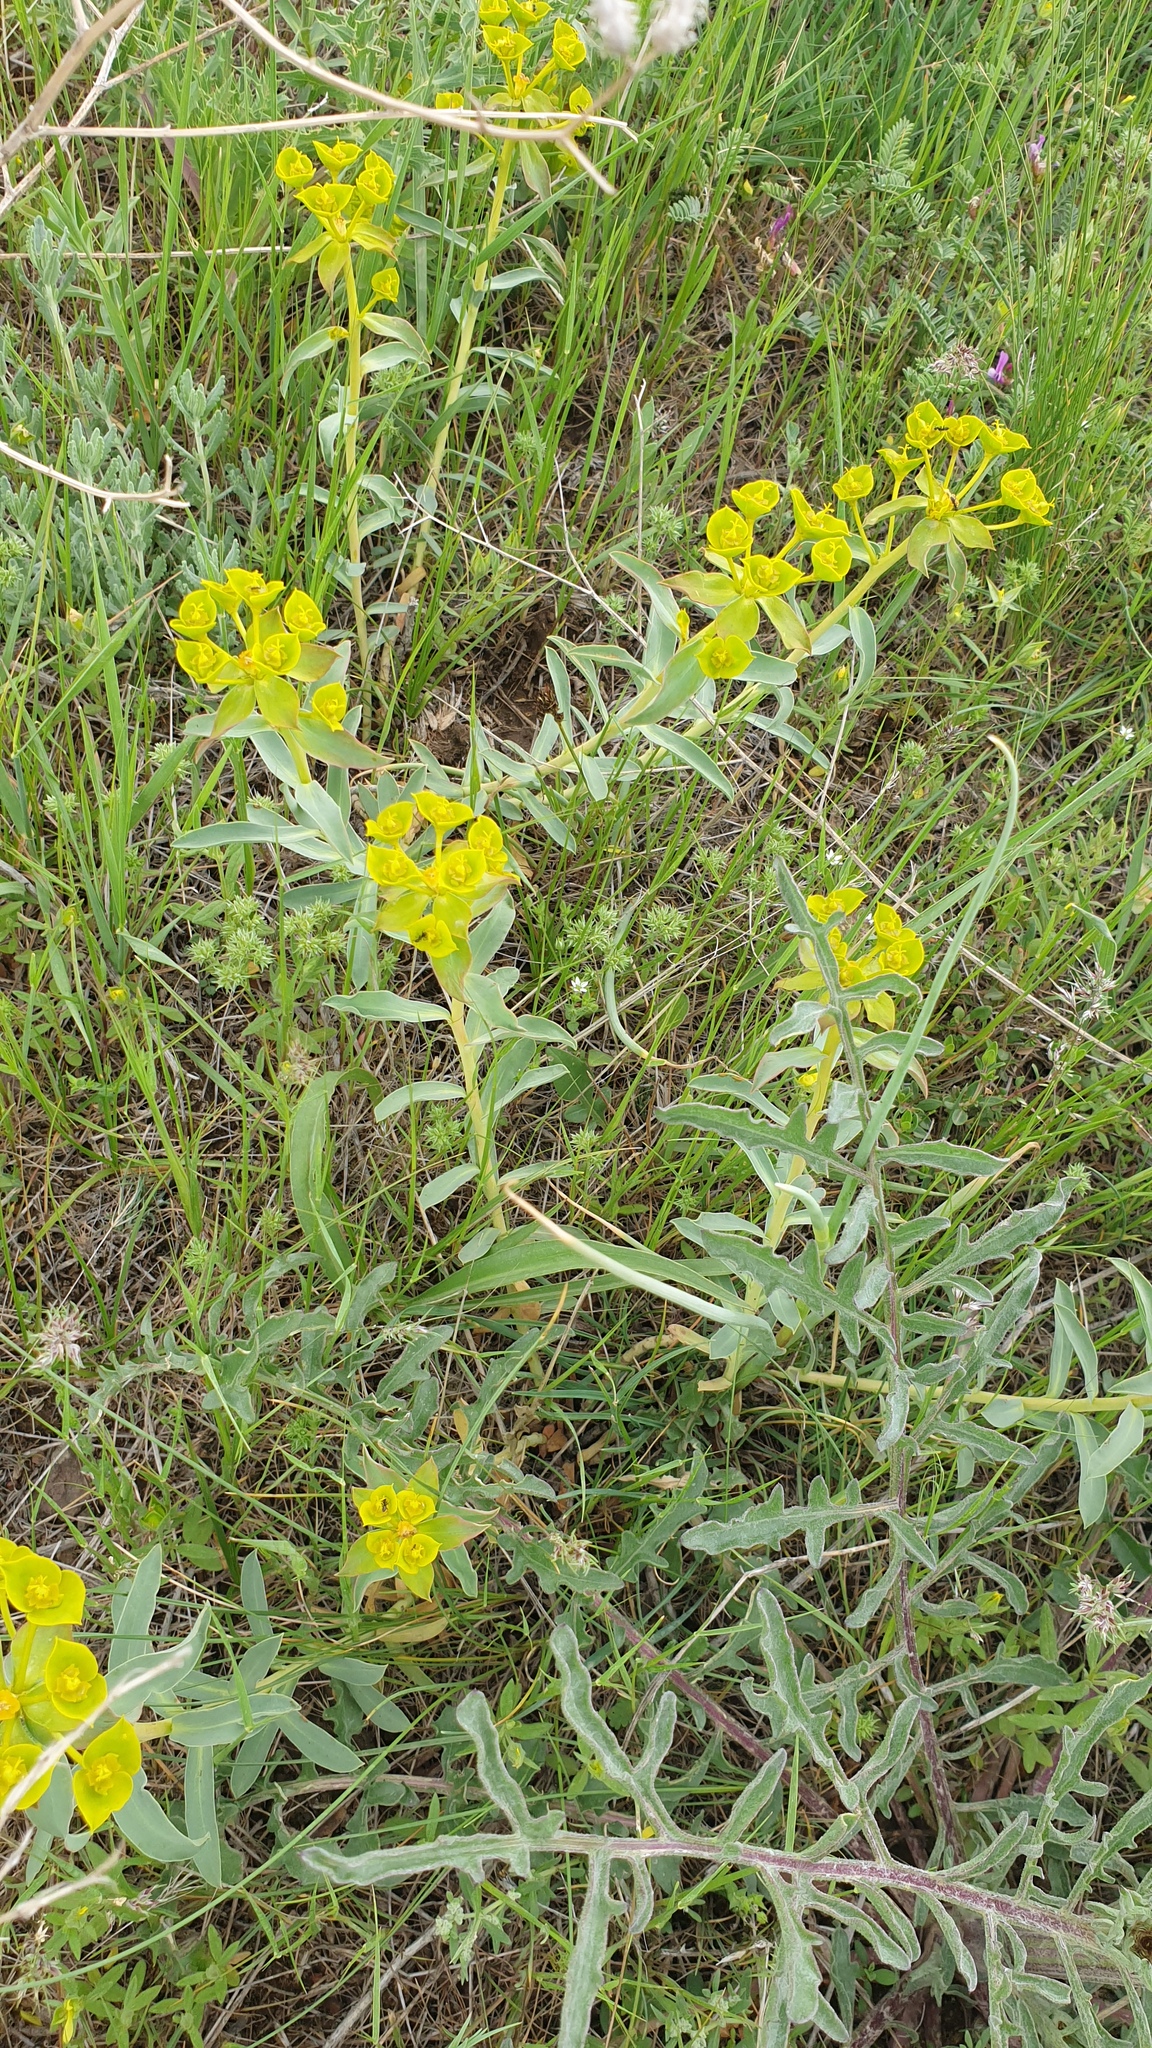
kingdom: Plantae
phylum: Tracheophyta
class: Magnoliopsida
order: Malpighiales
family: Euphorbiaceae
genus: Euphorbia
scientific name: Euphorbia seguieriana
